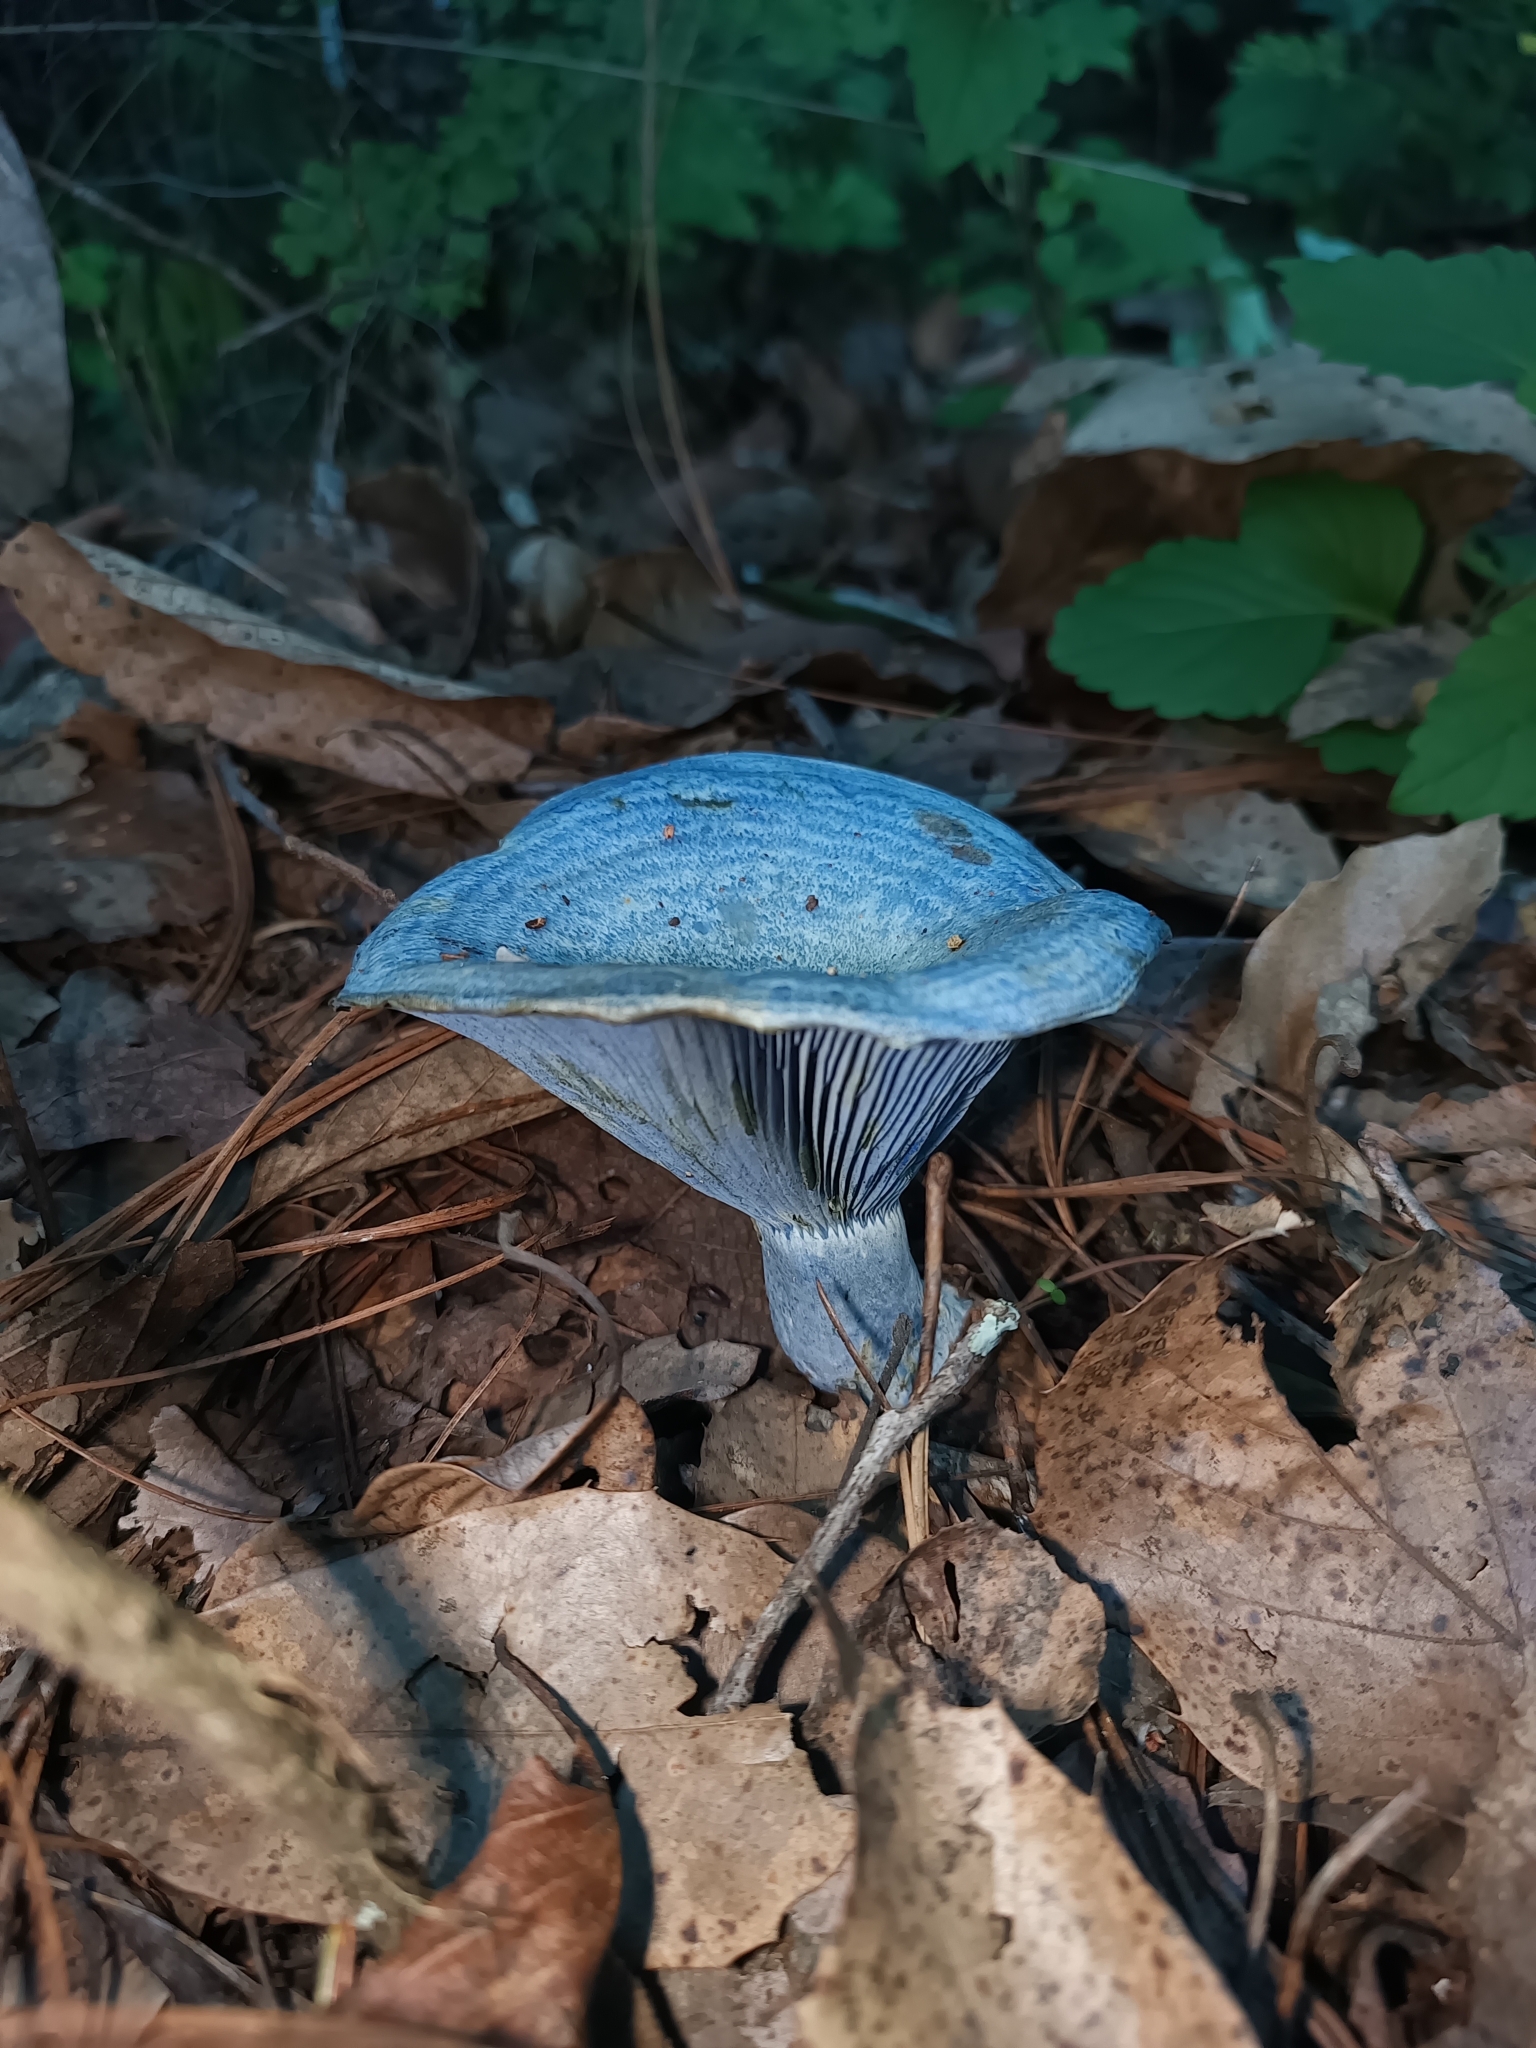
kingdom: Fungi
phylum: Basidiomycota
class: Agaricomycetes
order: Russulales
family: Russulaceae
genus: Lactarius
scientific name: Lactarius indigo
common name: Indigo milk cap
